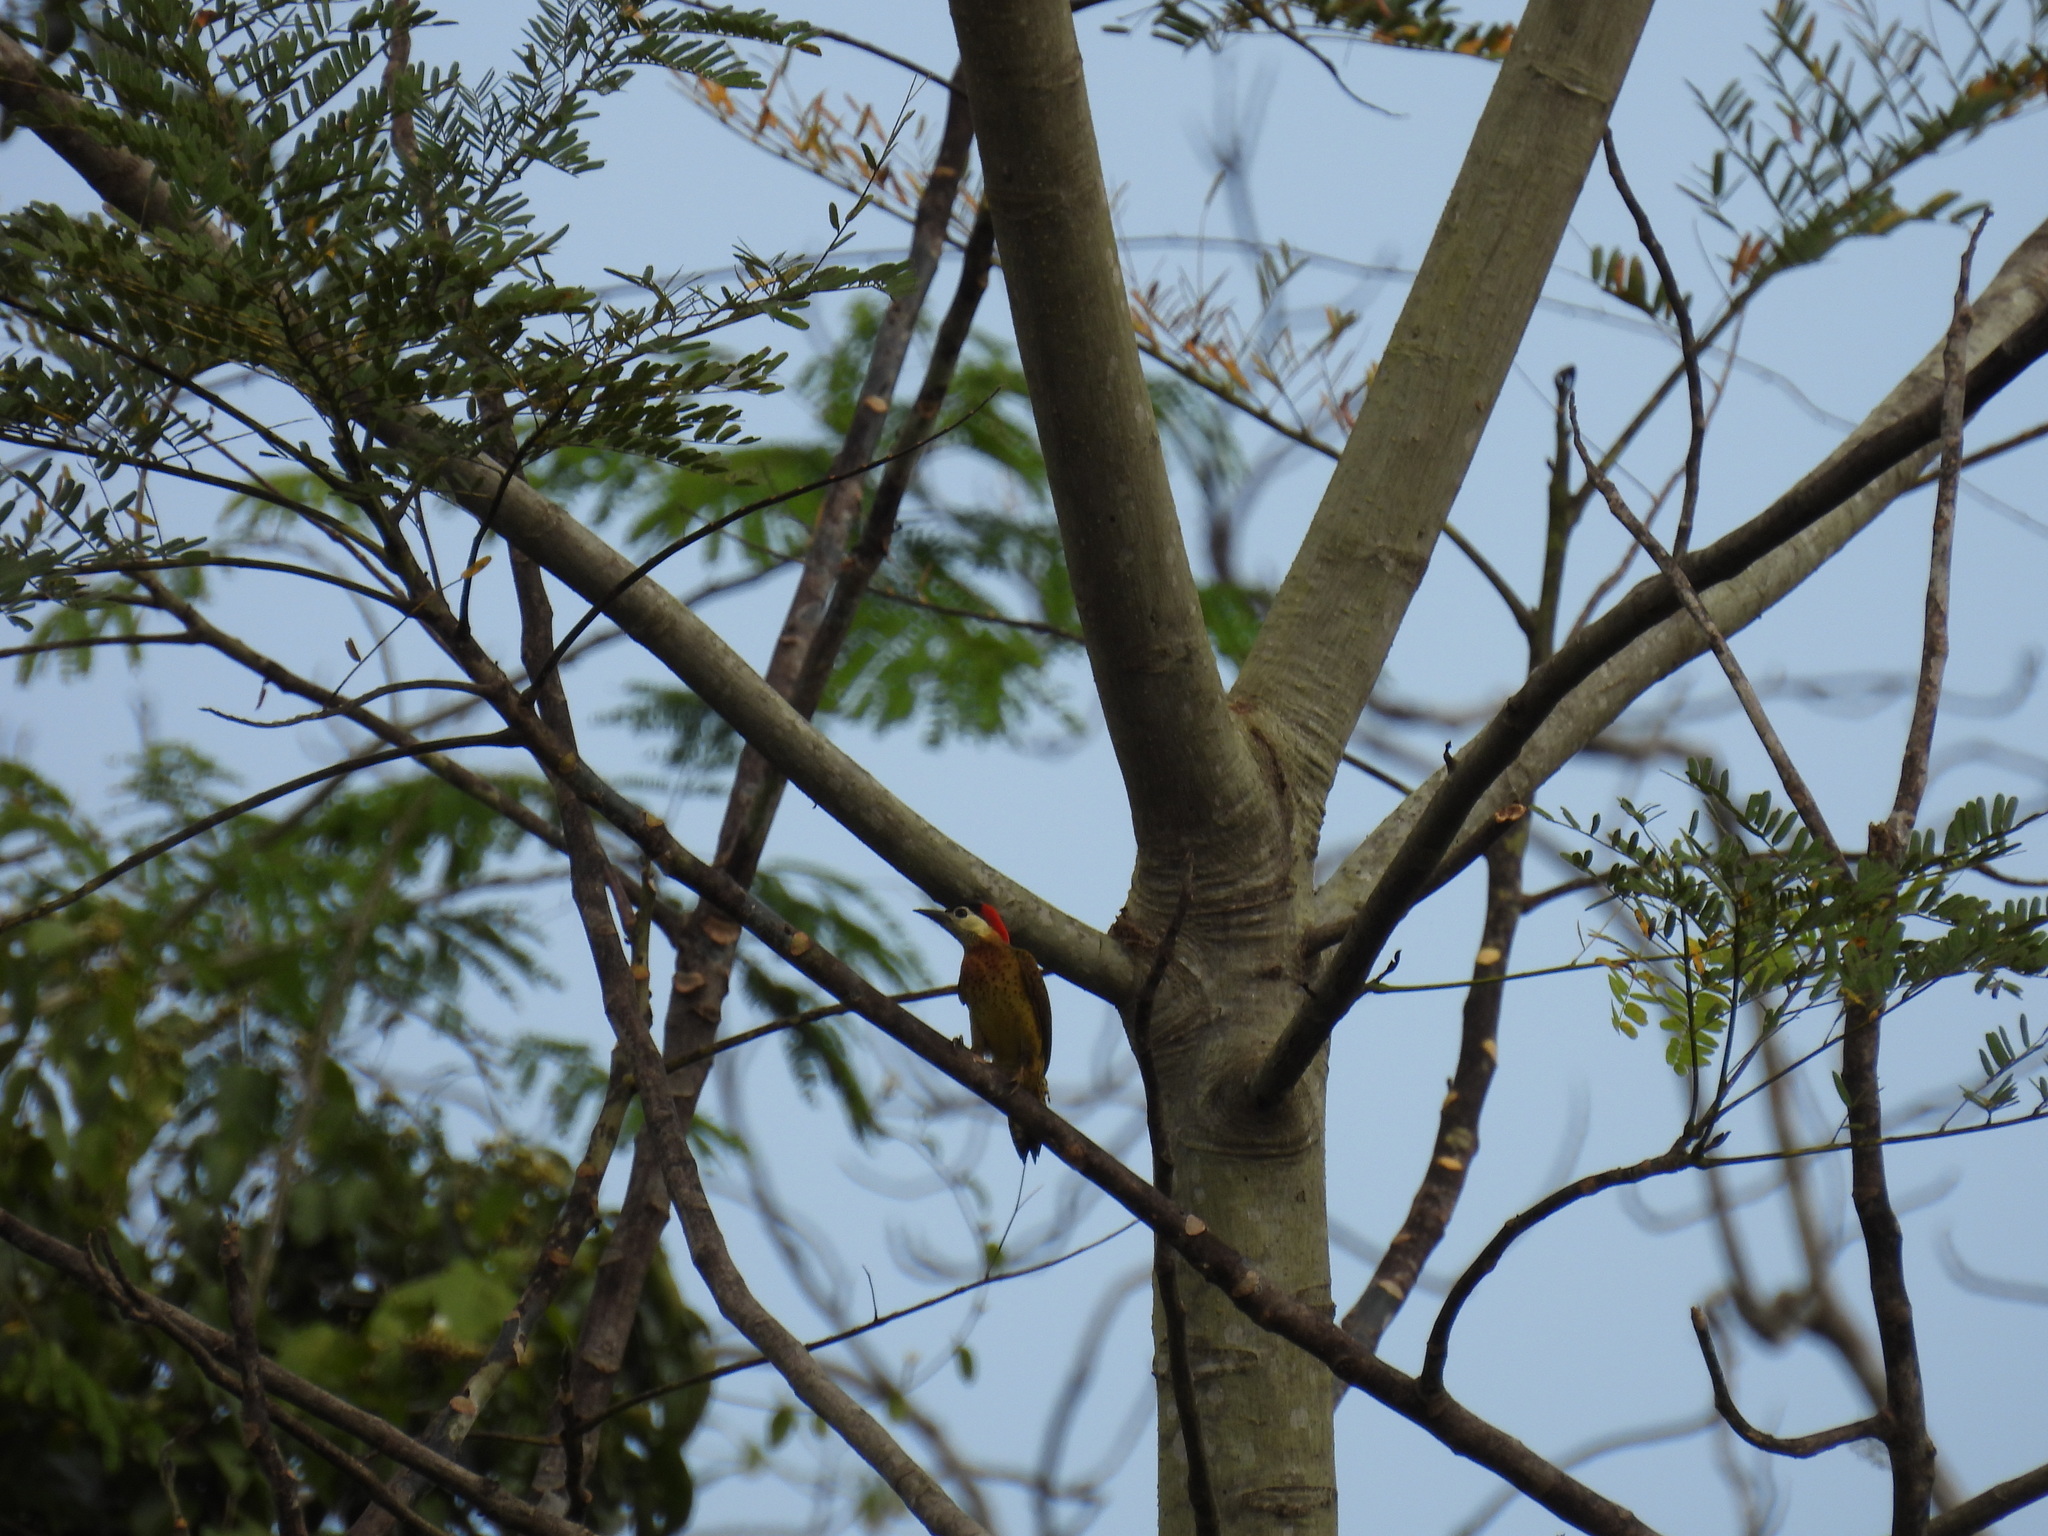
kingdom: Animalia
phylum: Chordata
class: Aves
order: Piciformes
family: Picidae
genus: Colaptes
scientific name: Colaptes punctigula
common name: Spot-breasted woodpecker
